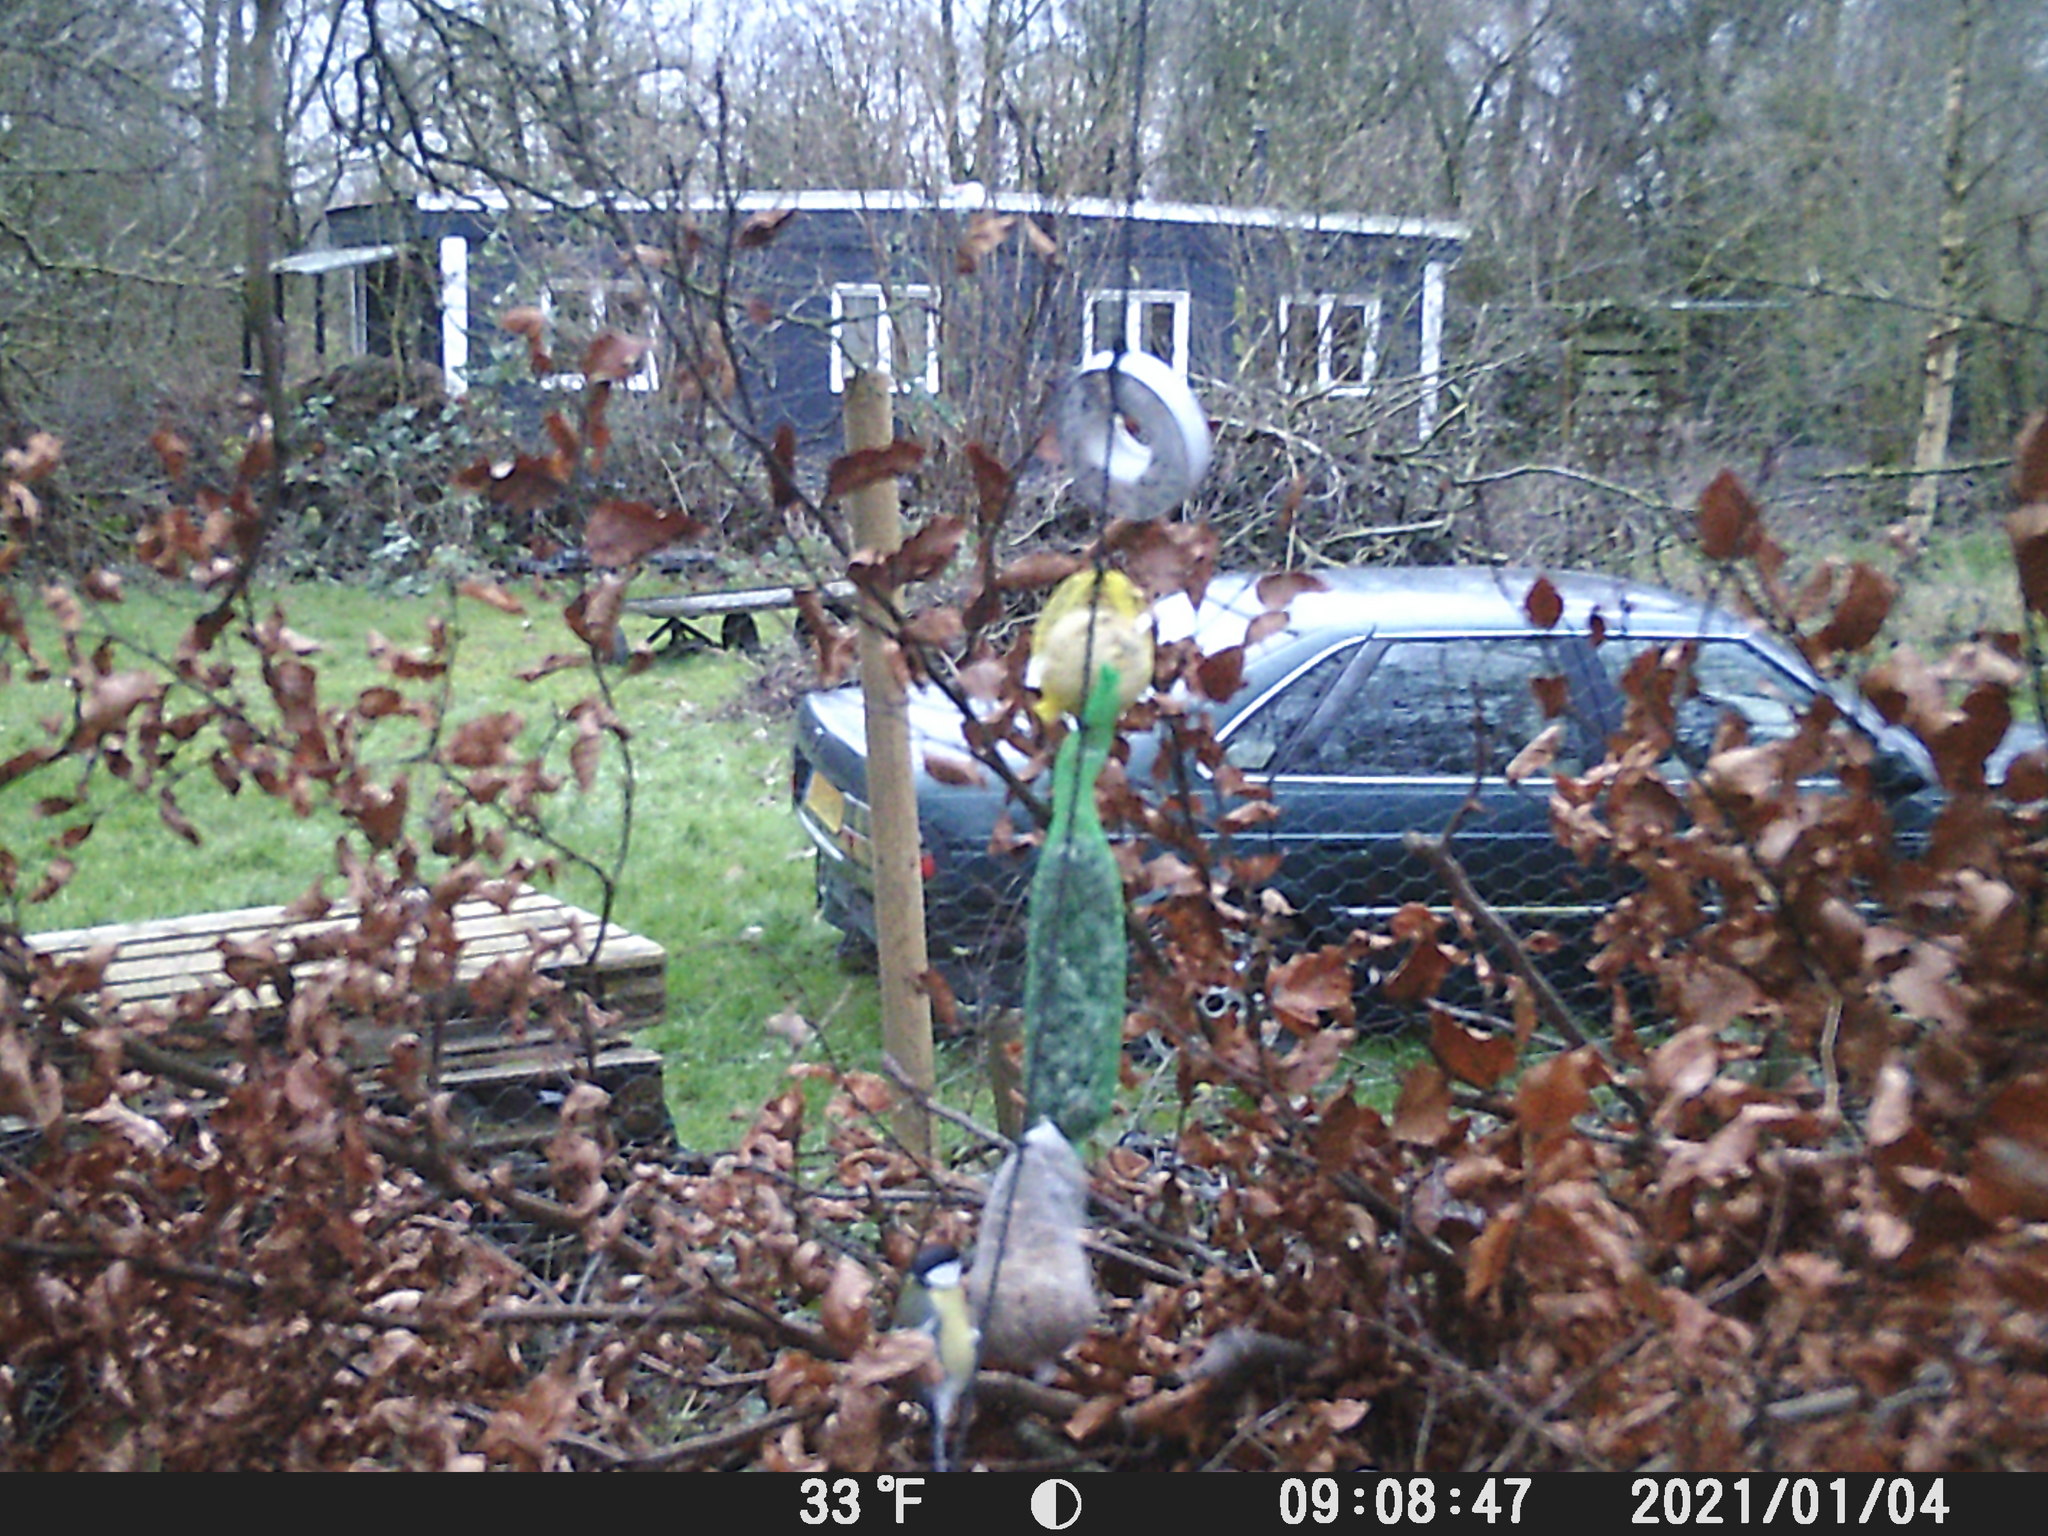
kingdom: Animalia
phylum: Chordata
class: Aves
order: Passeriformes
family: Paridae
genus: Parus
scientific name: Parus major
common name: Great tit
